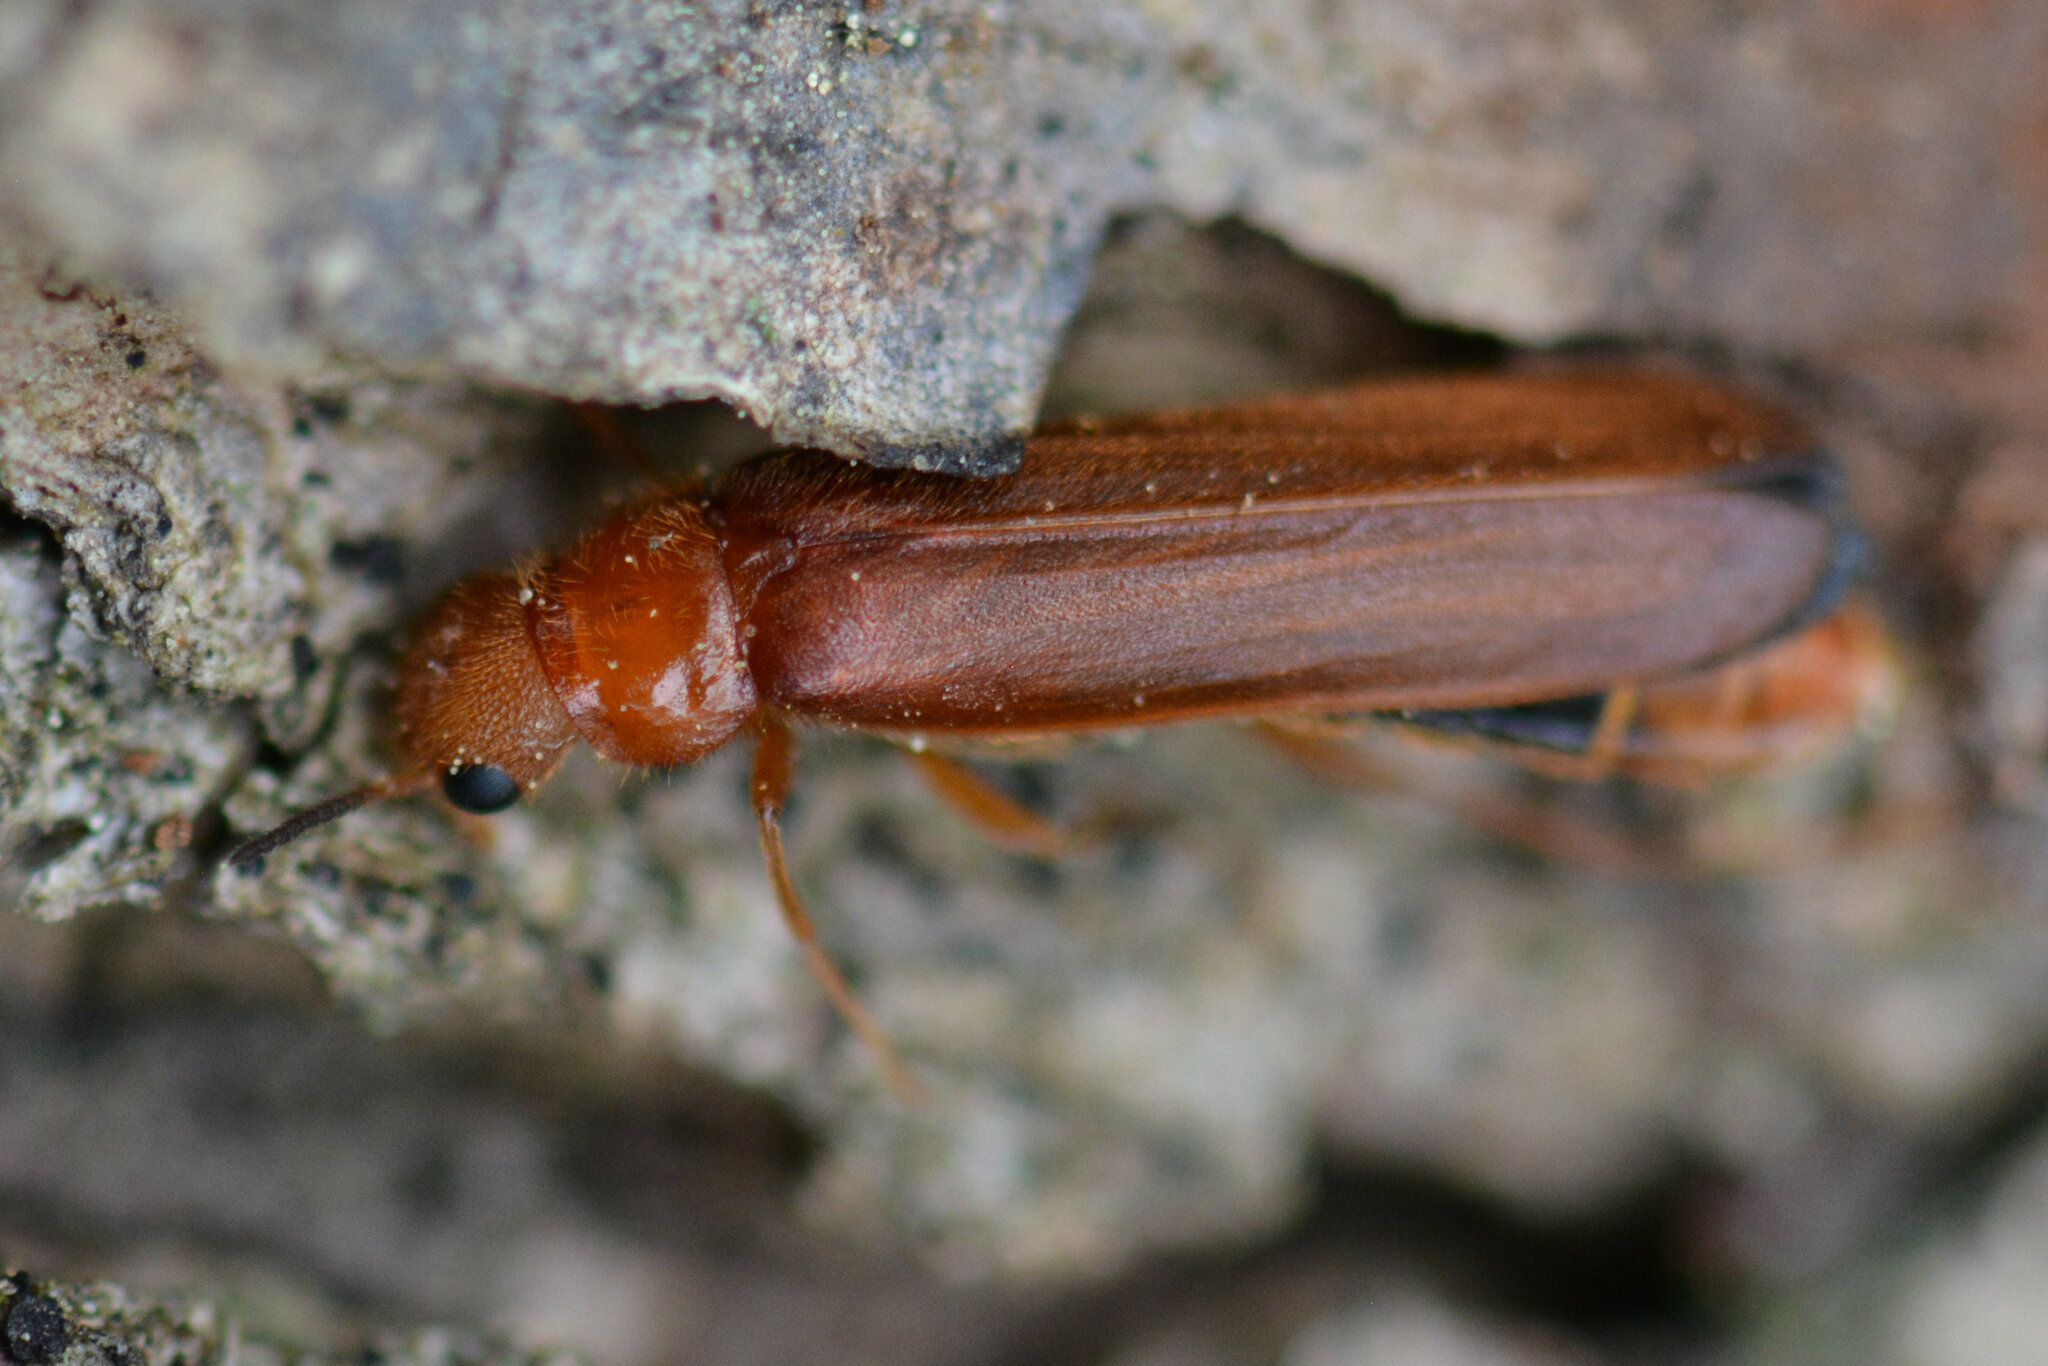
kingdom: Animalia
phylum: Arthropoda
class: Insecta
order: Coleoptera
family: Lymexylidae
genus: Hylecoetus
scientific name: Hylecoetus dermestoides
